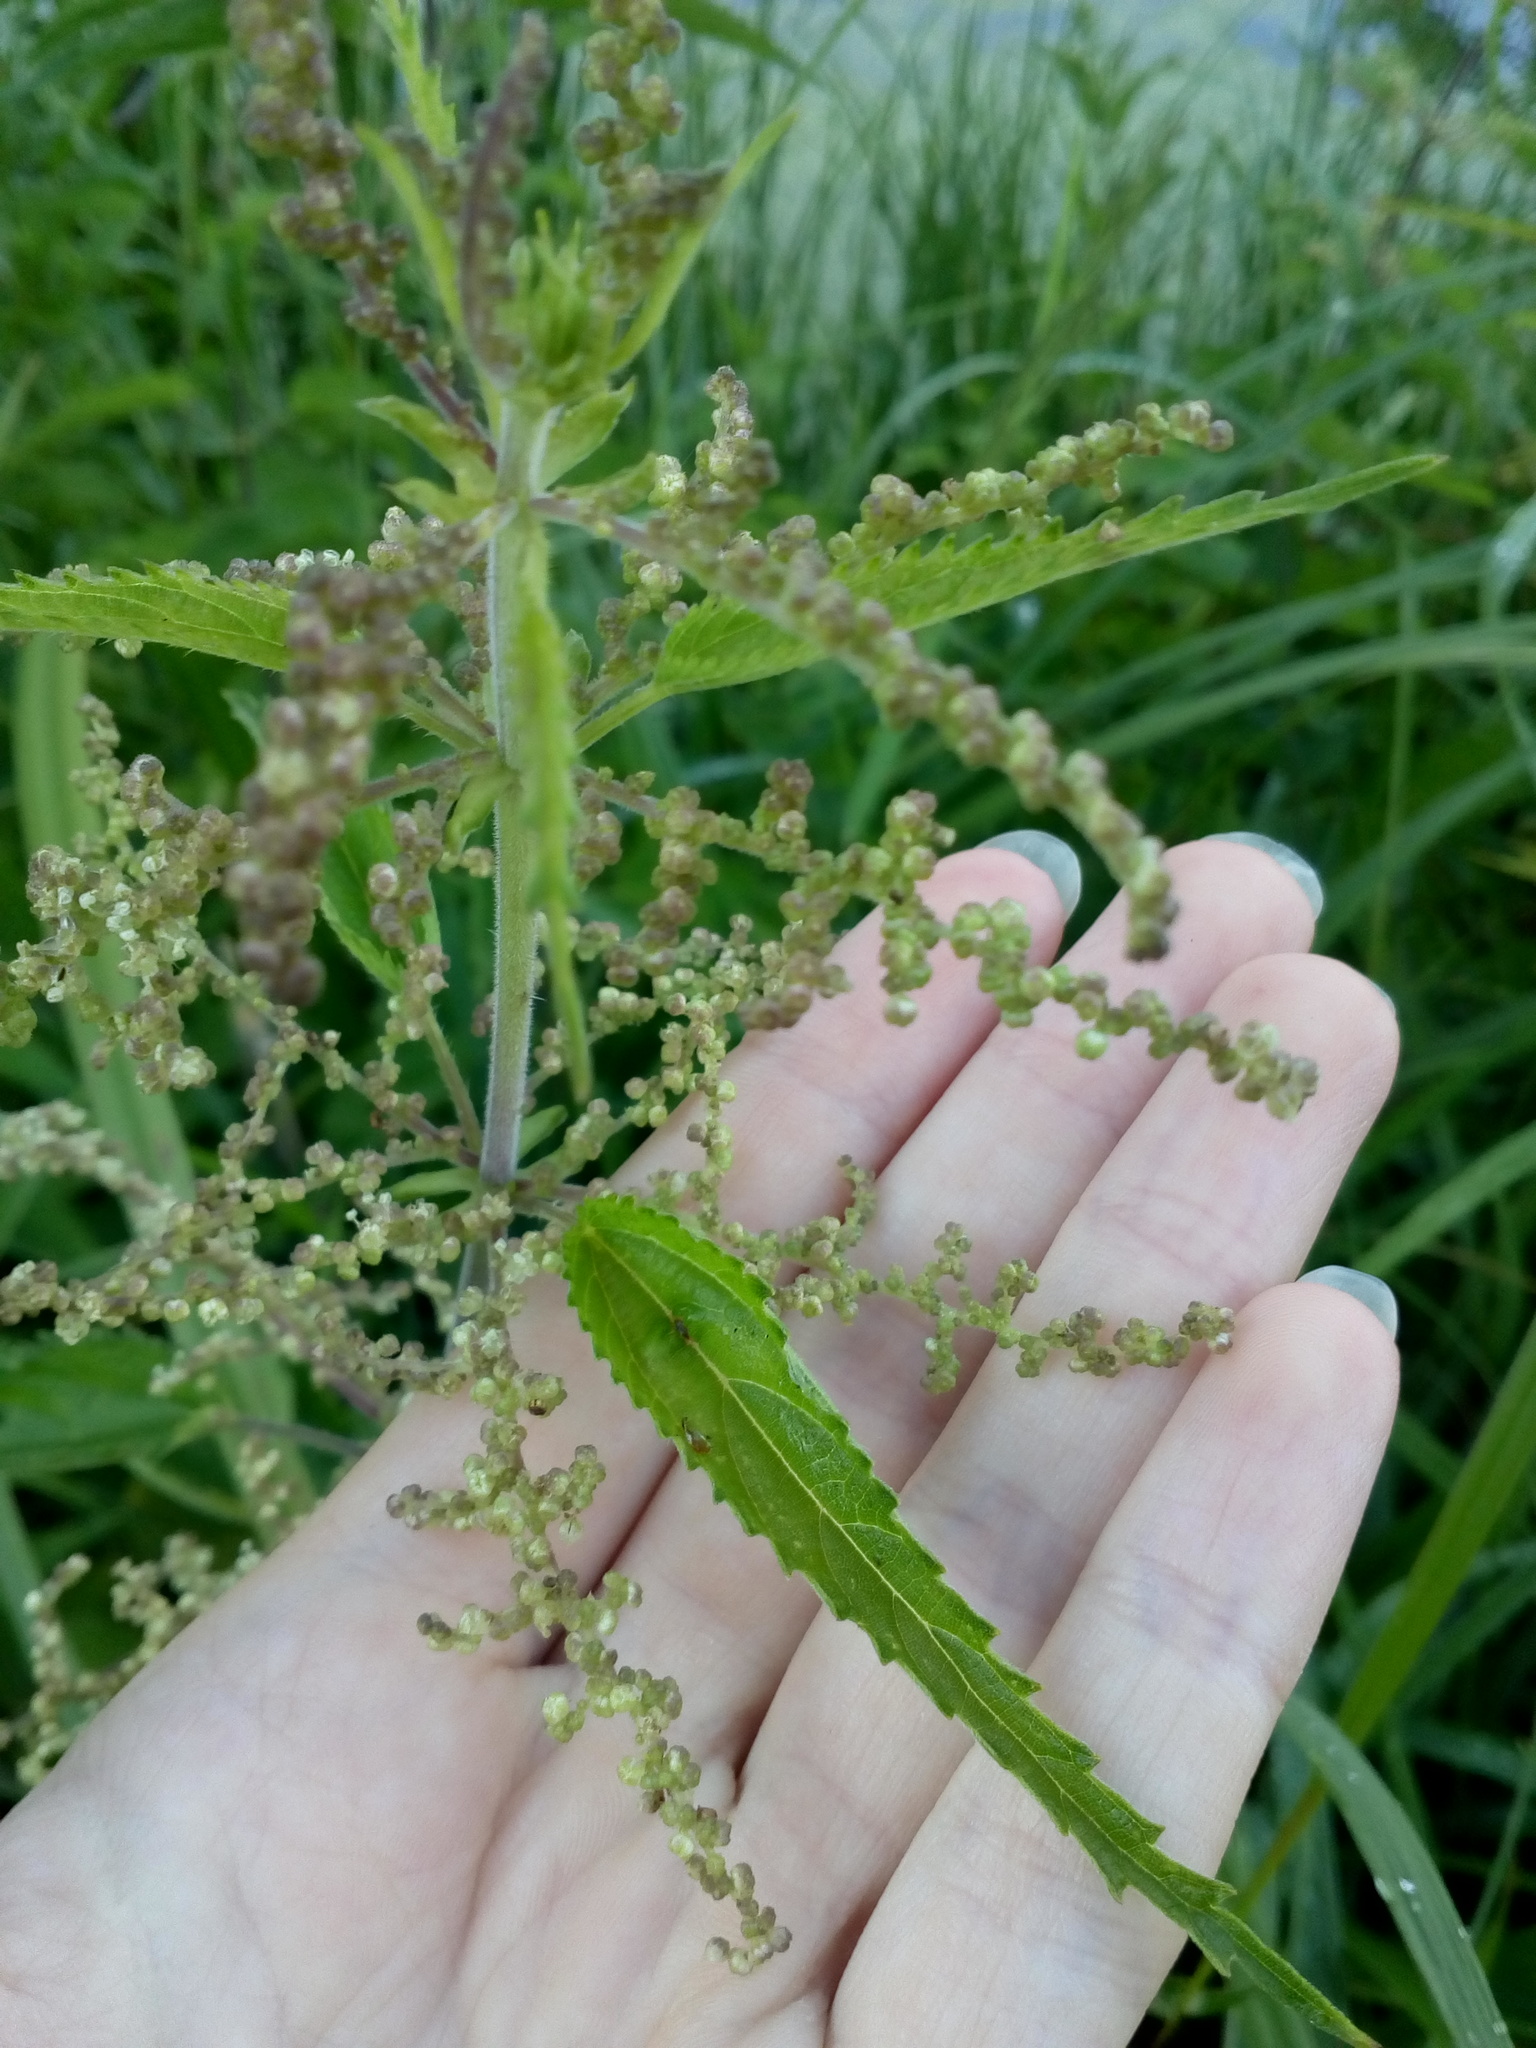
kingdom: Plantae
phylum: Tracheophyta
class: Magnoliopsida
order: Rosales
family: Urticaceae
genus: Urtica
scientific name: Urtica dioica
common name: Common nettle
